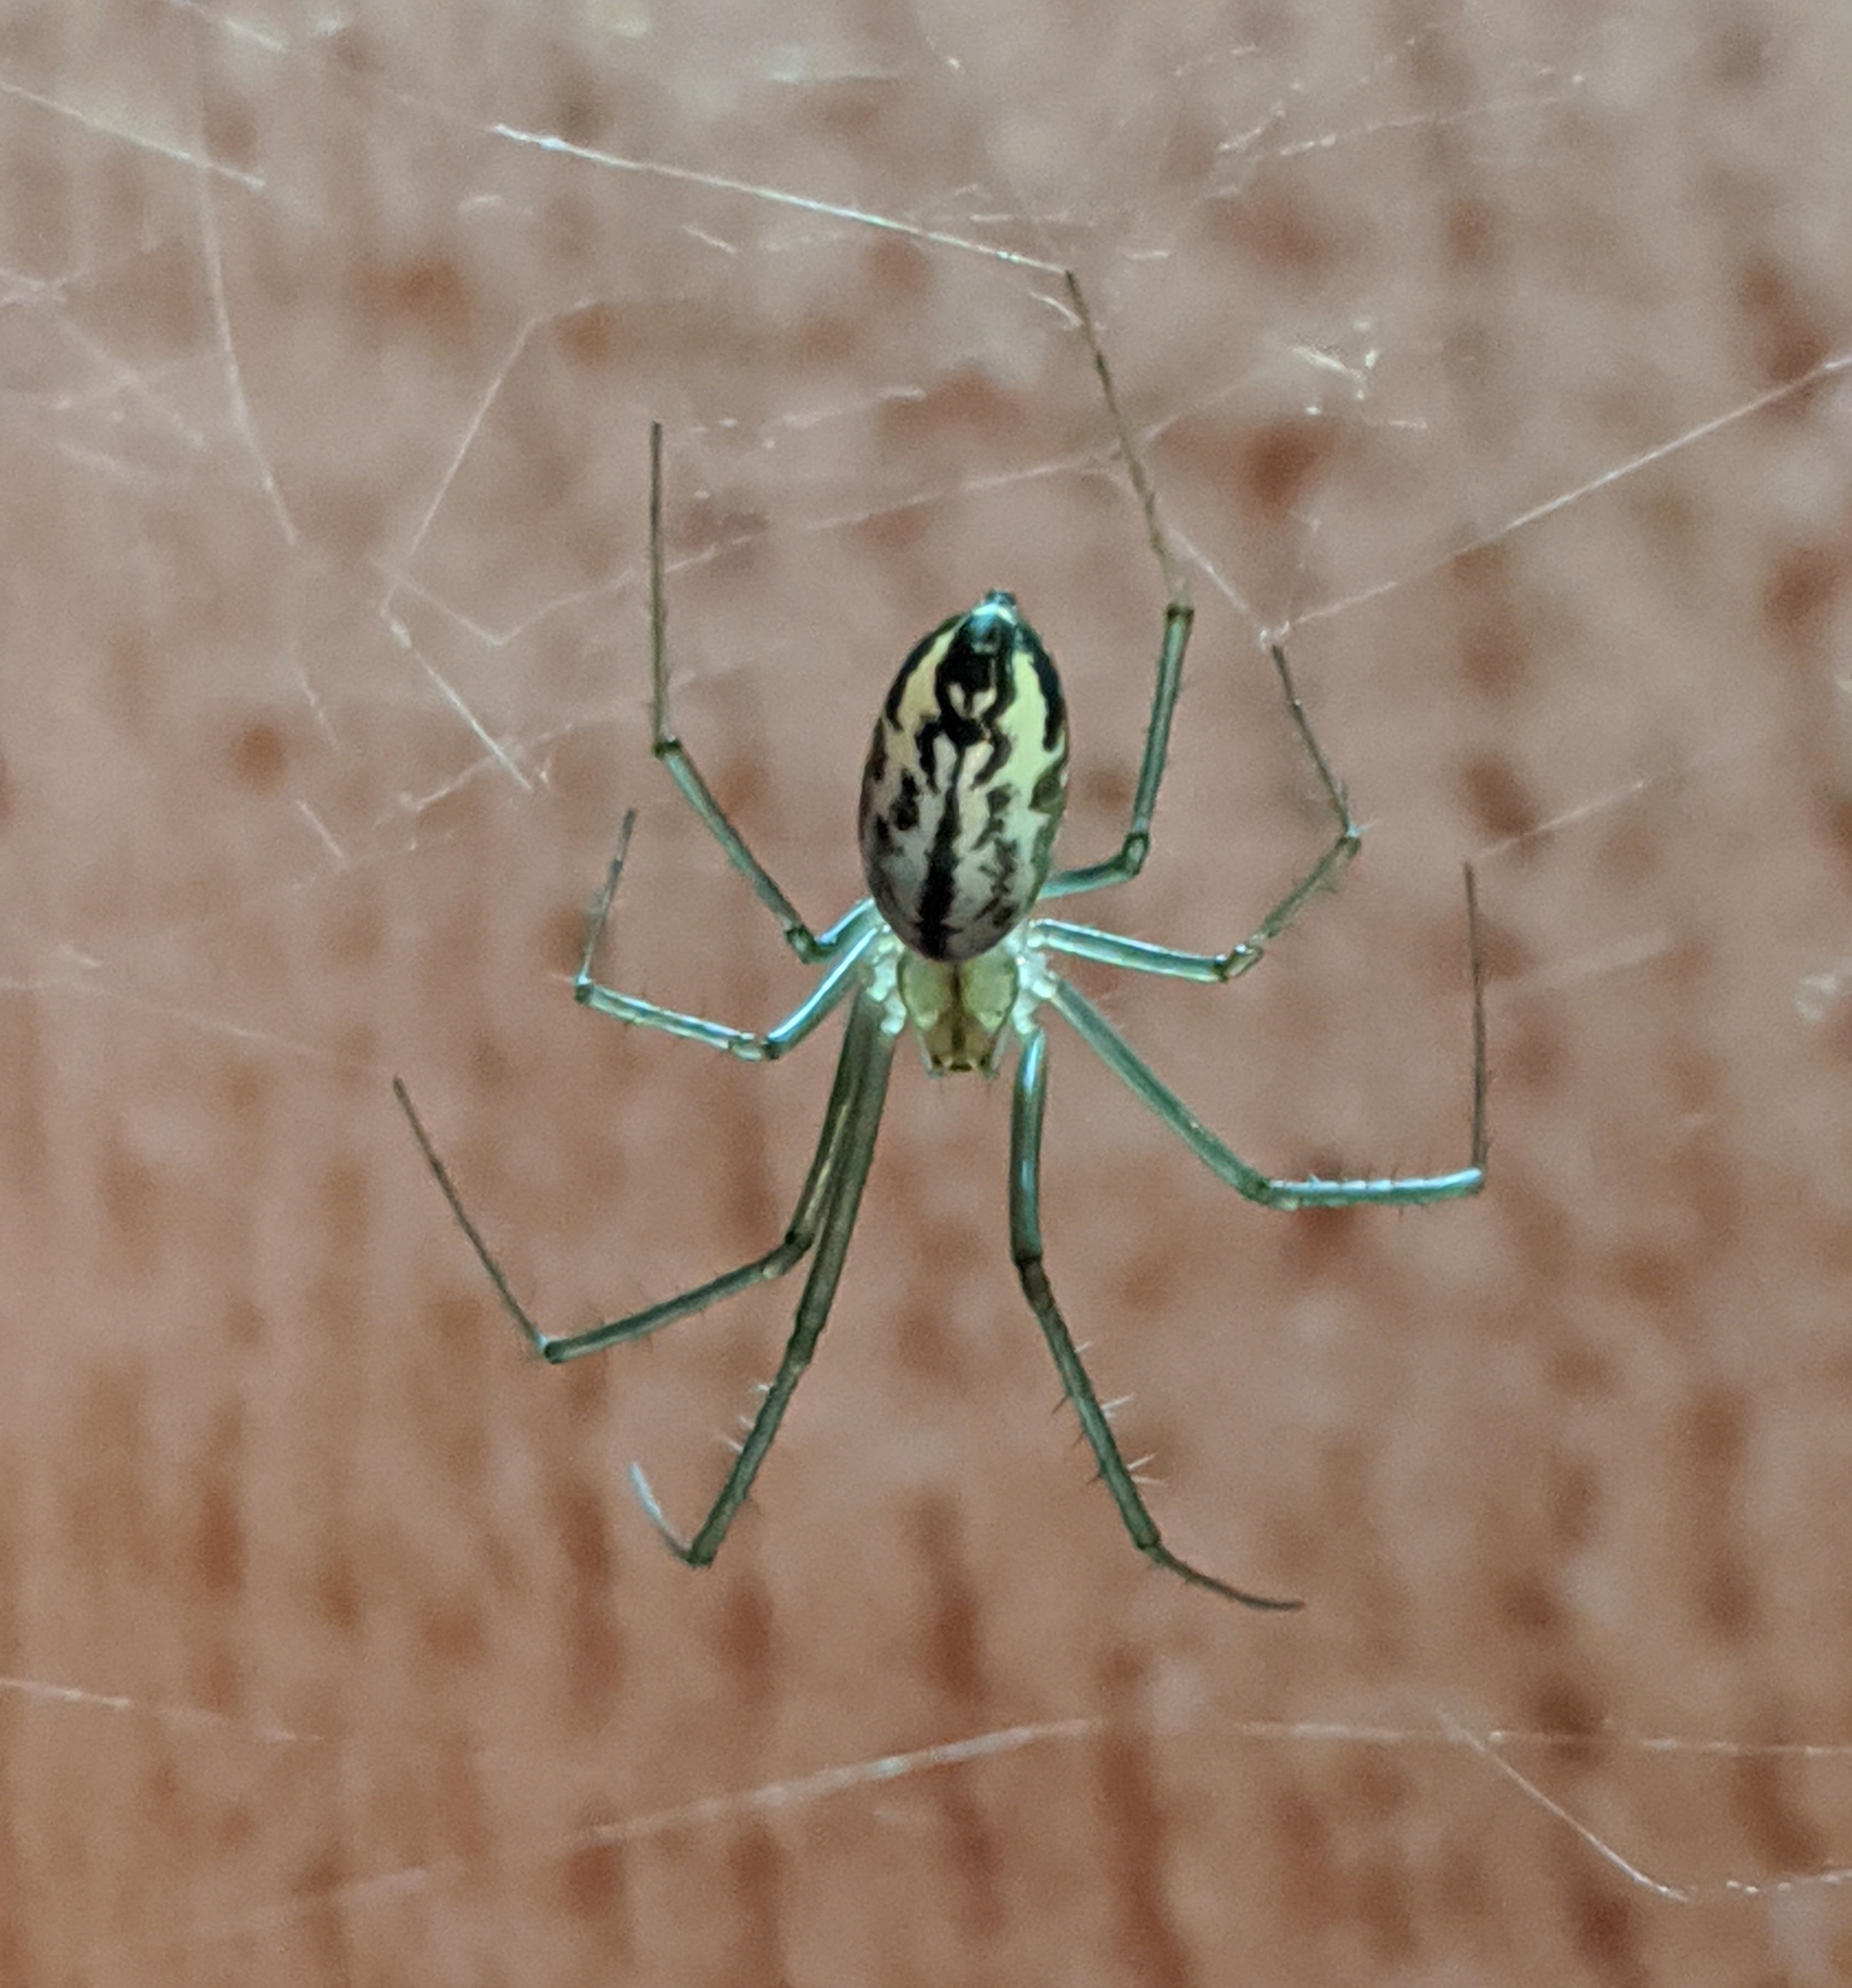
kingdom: Animalia
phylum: Arthropoda
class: Arachnida
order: Araneae
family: Linyphiidae
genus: Neriene
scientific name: Neriene litigiosa
